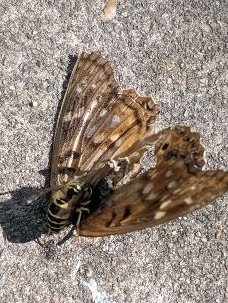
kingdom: Animalia
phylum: Arthropoda
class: Insecta
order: Hymenoptera
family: Vespidae
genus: Vespula
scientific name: Vespula maculifrons
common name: Eastern yellowjacket
